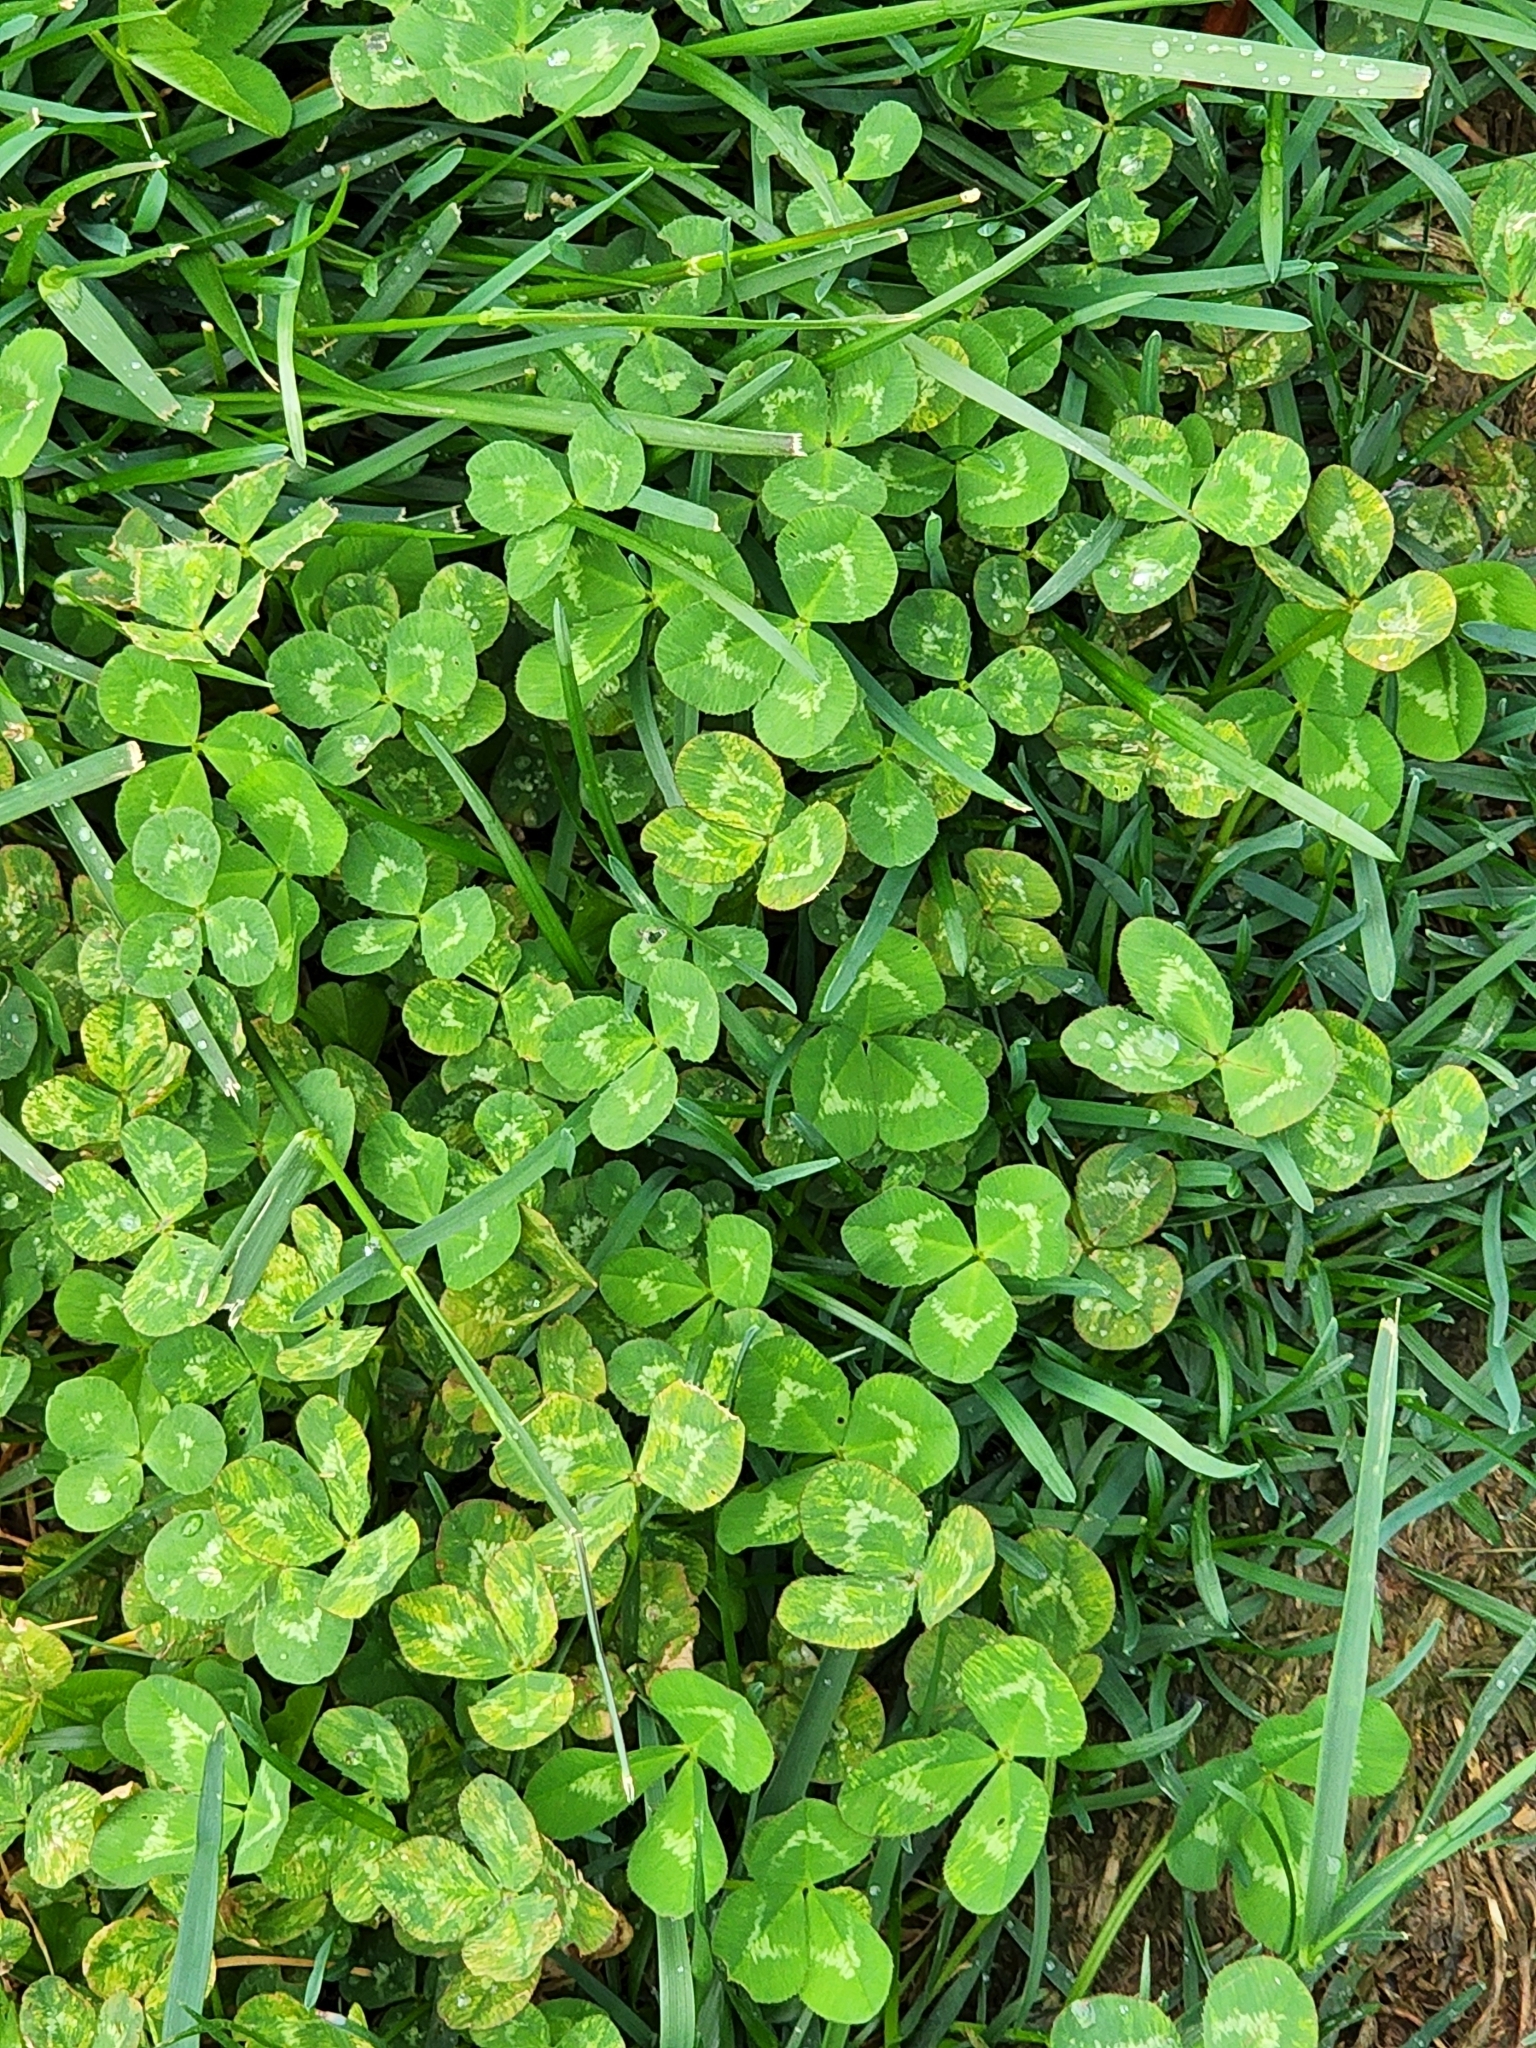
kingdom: Plantae
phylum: Tracheophyta
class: Magnoliopsida
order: Fabales
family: Fabaceae
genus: Trifolium
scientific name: Trifolium repens
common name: White clover
